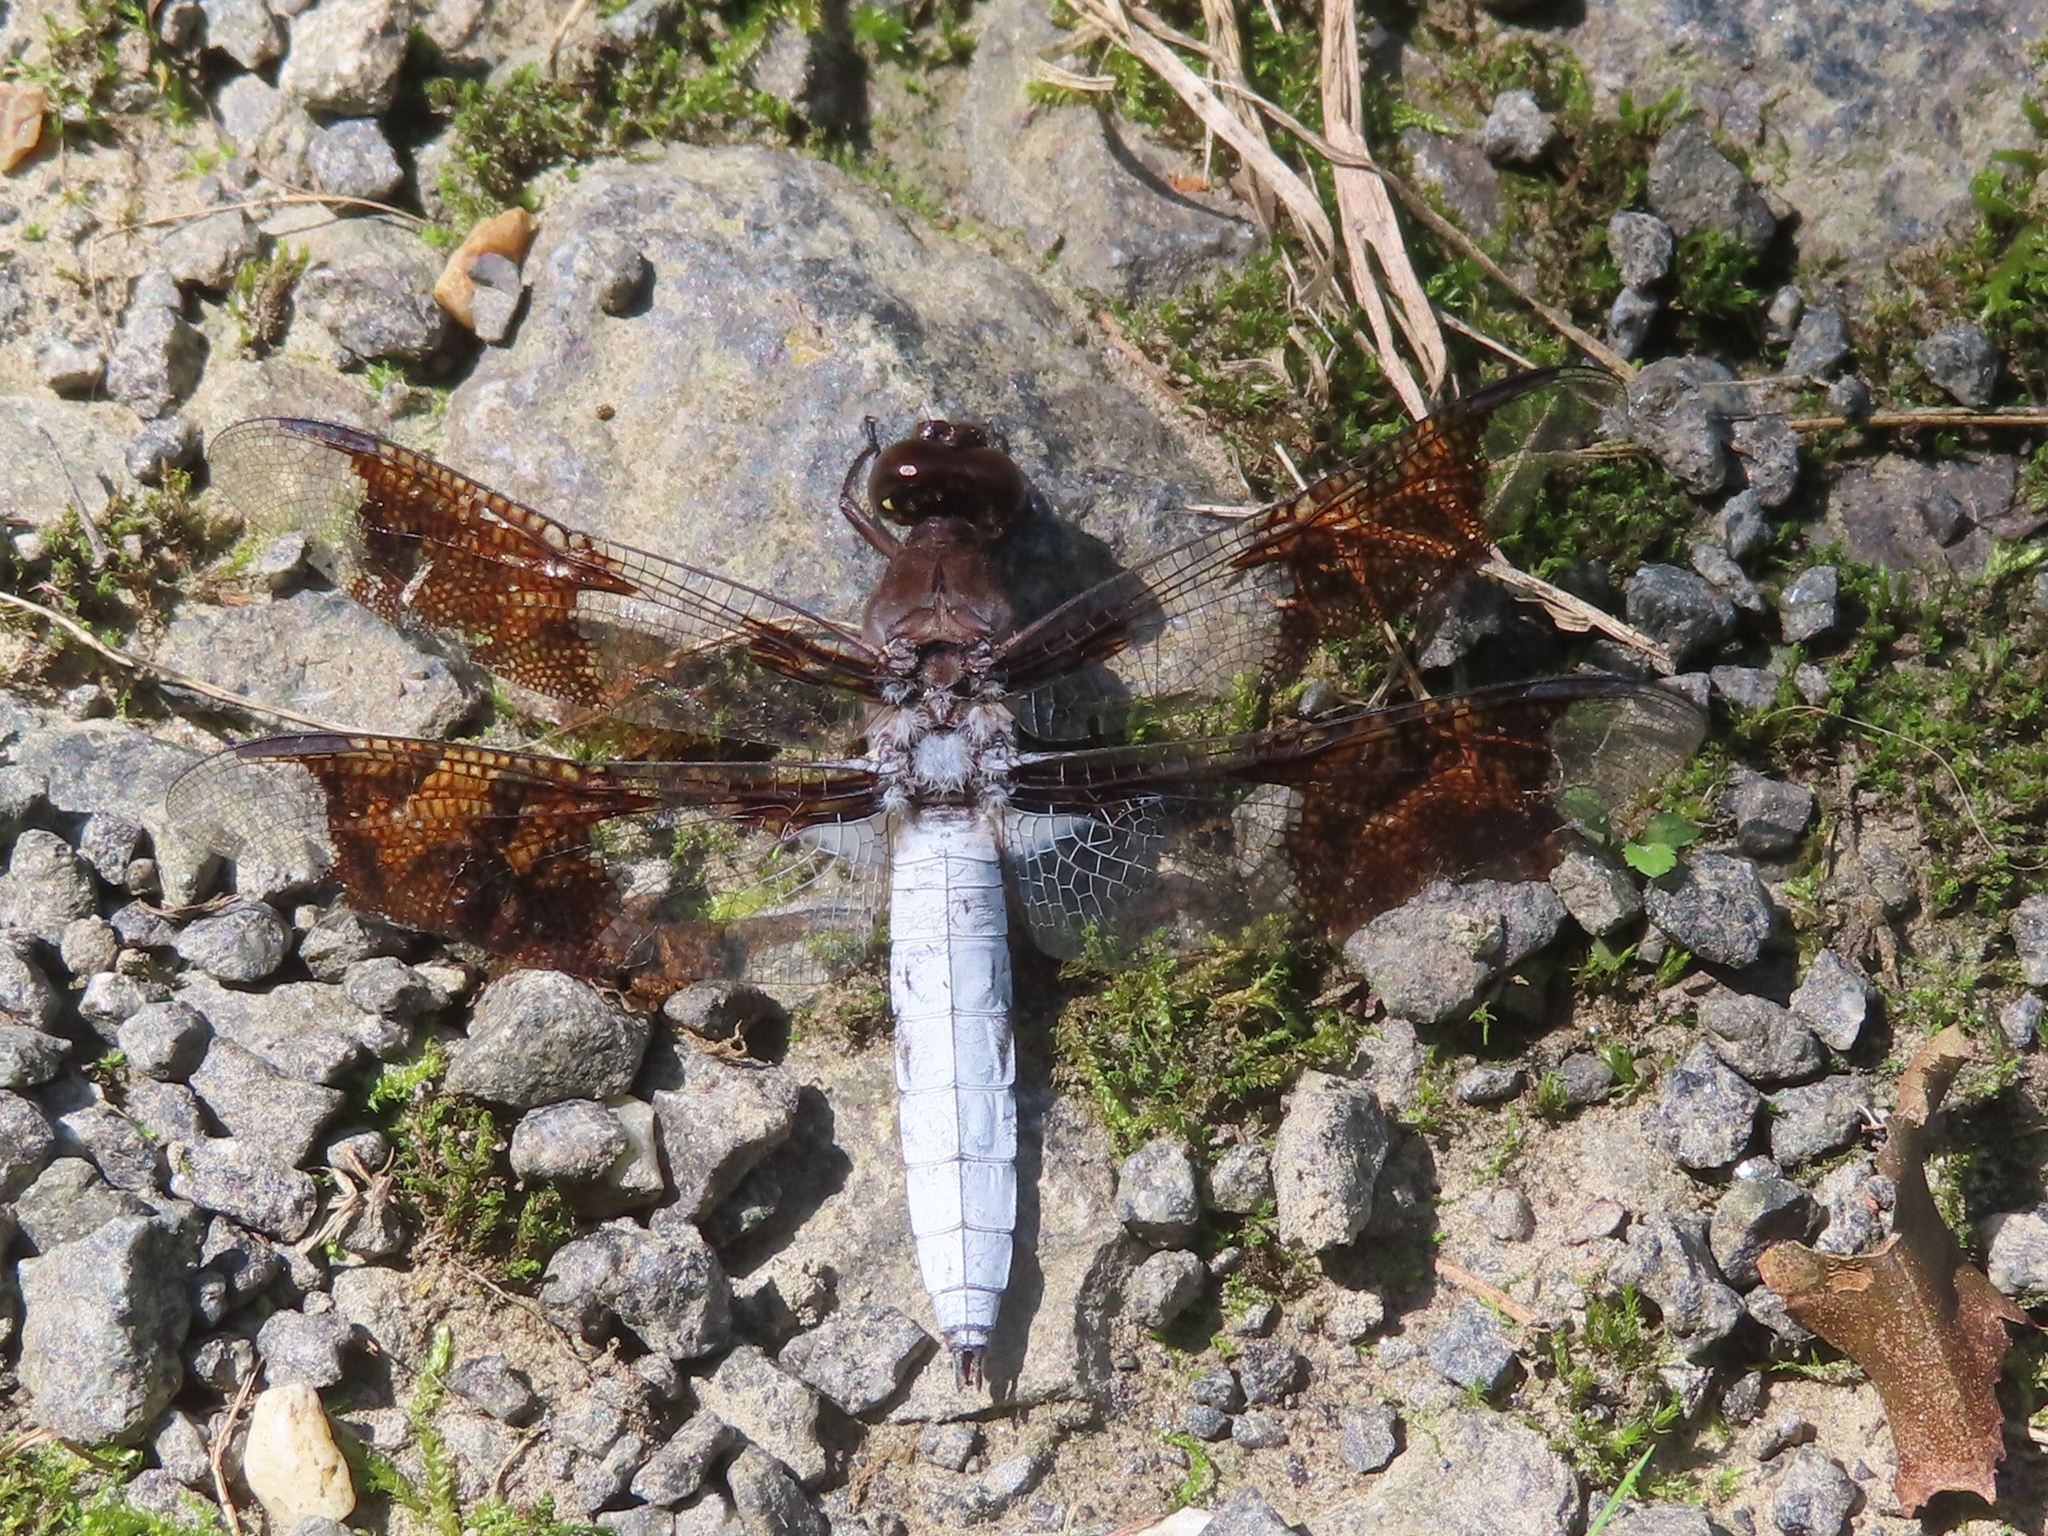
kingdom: Animalia
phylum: Arthropoda
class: Insecta
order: Odonata
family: Libellulidae
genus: Plathemis
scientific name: Plathemis lydia
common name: Common whitetail
